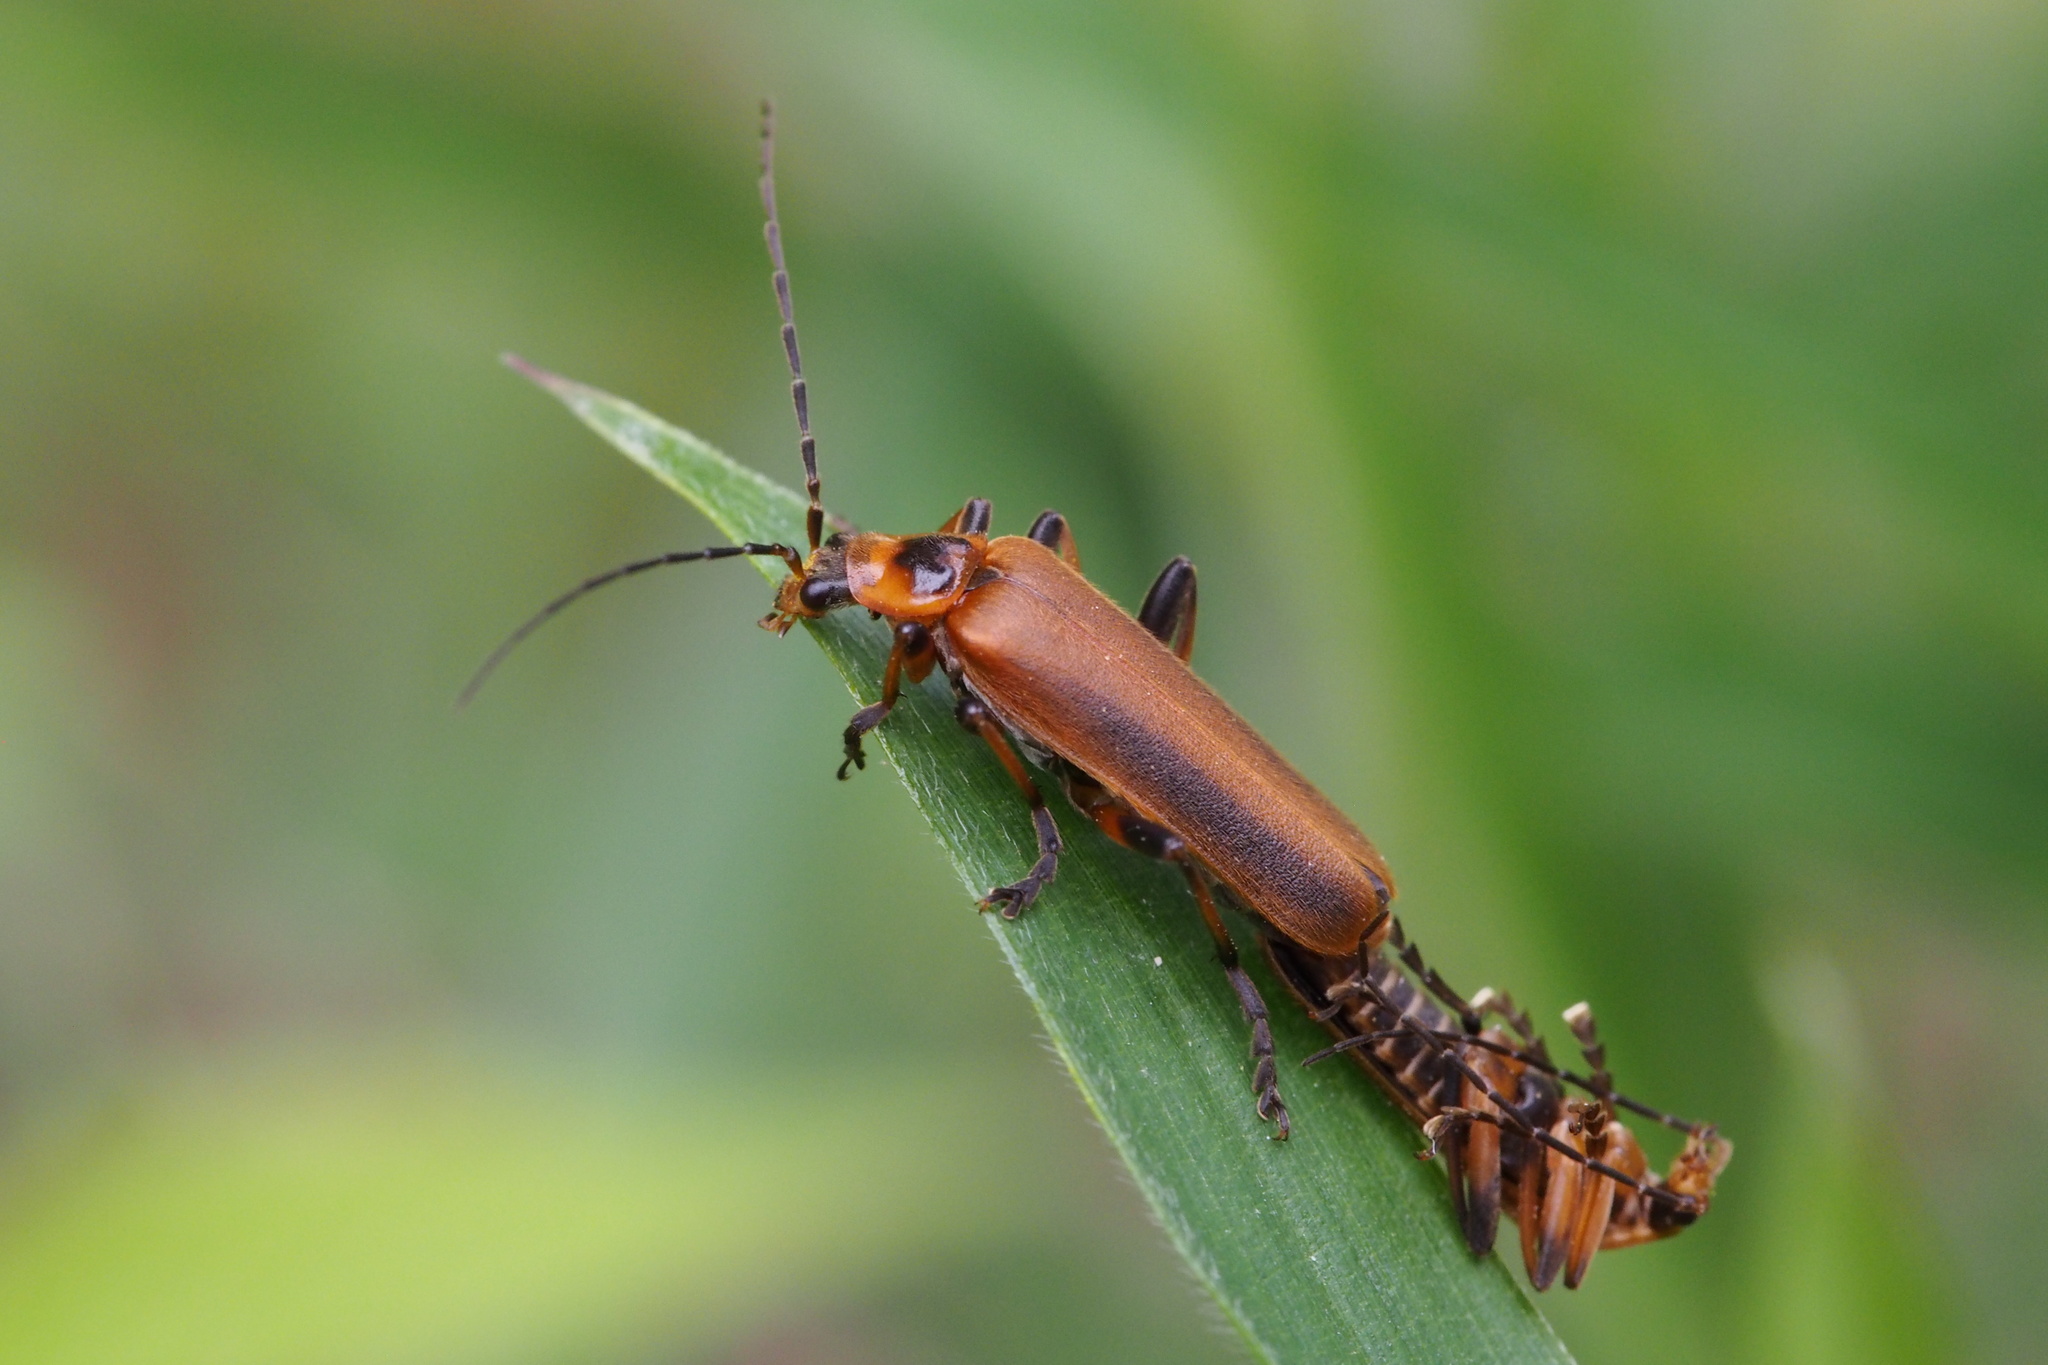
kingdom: Animalia
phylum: Arthropoda
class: Insecta
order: Coleoptera
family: Cantharidae
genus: Prothemus
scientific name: Prothemus
